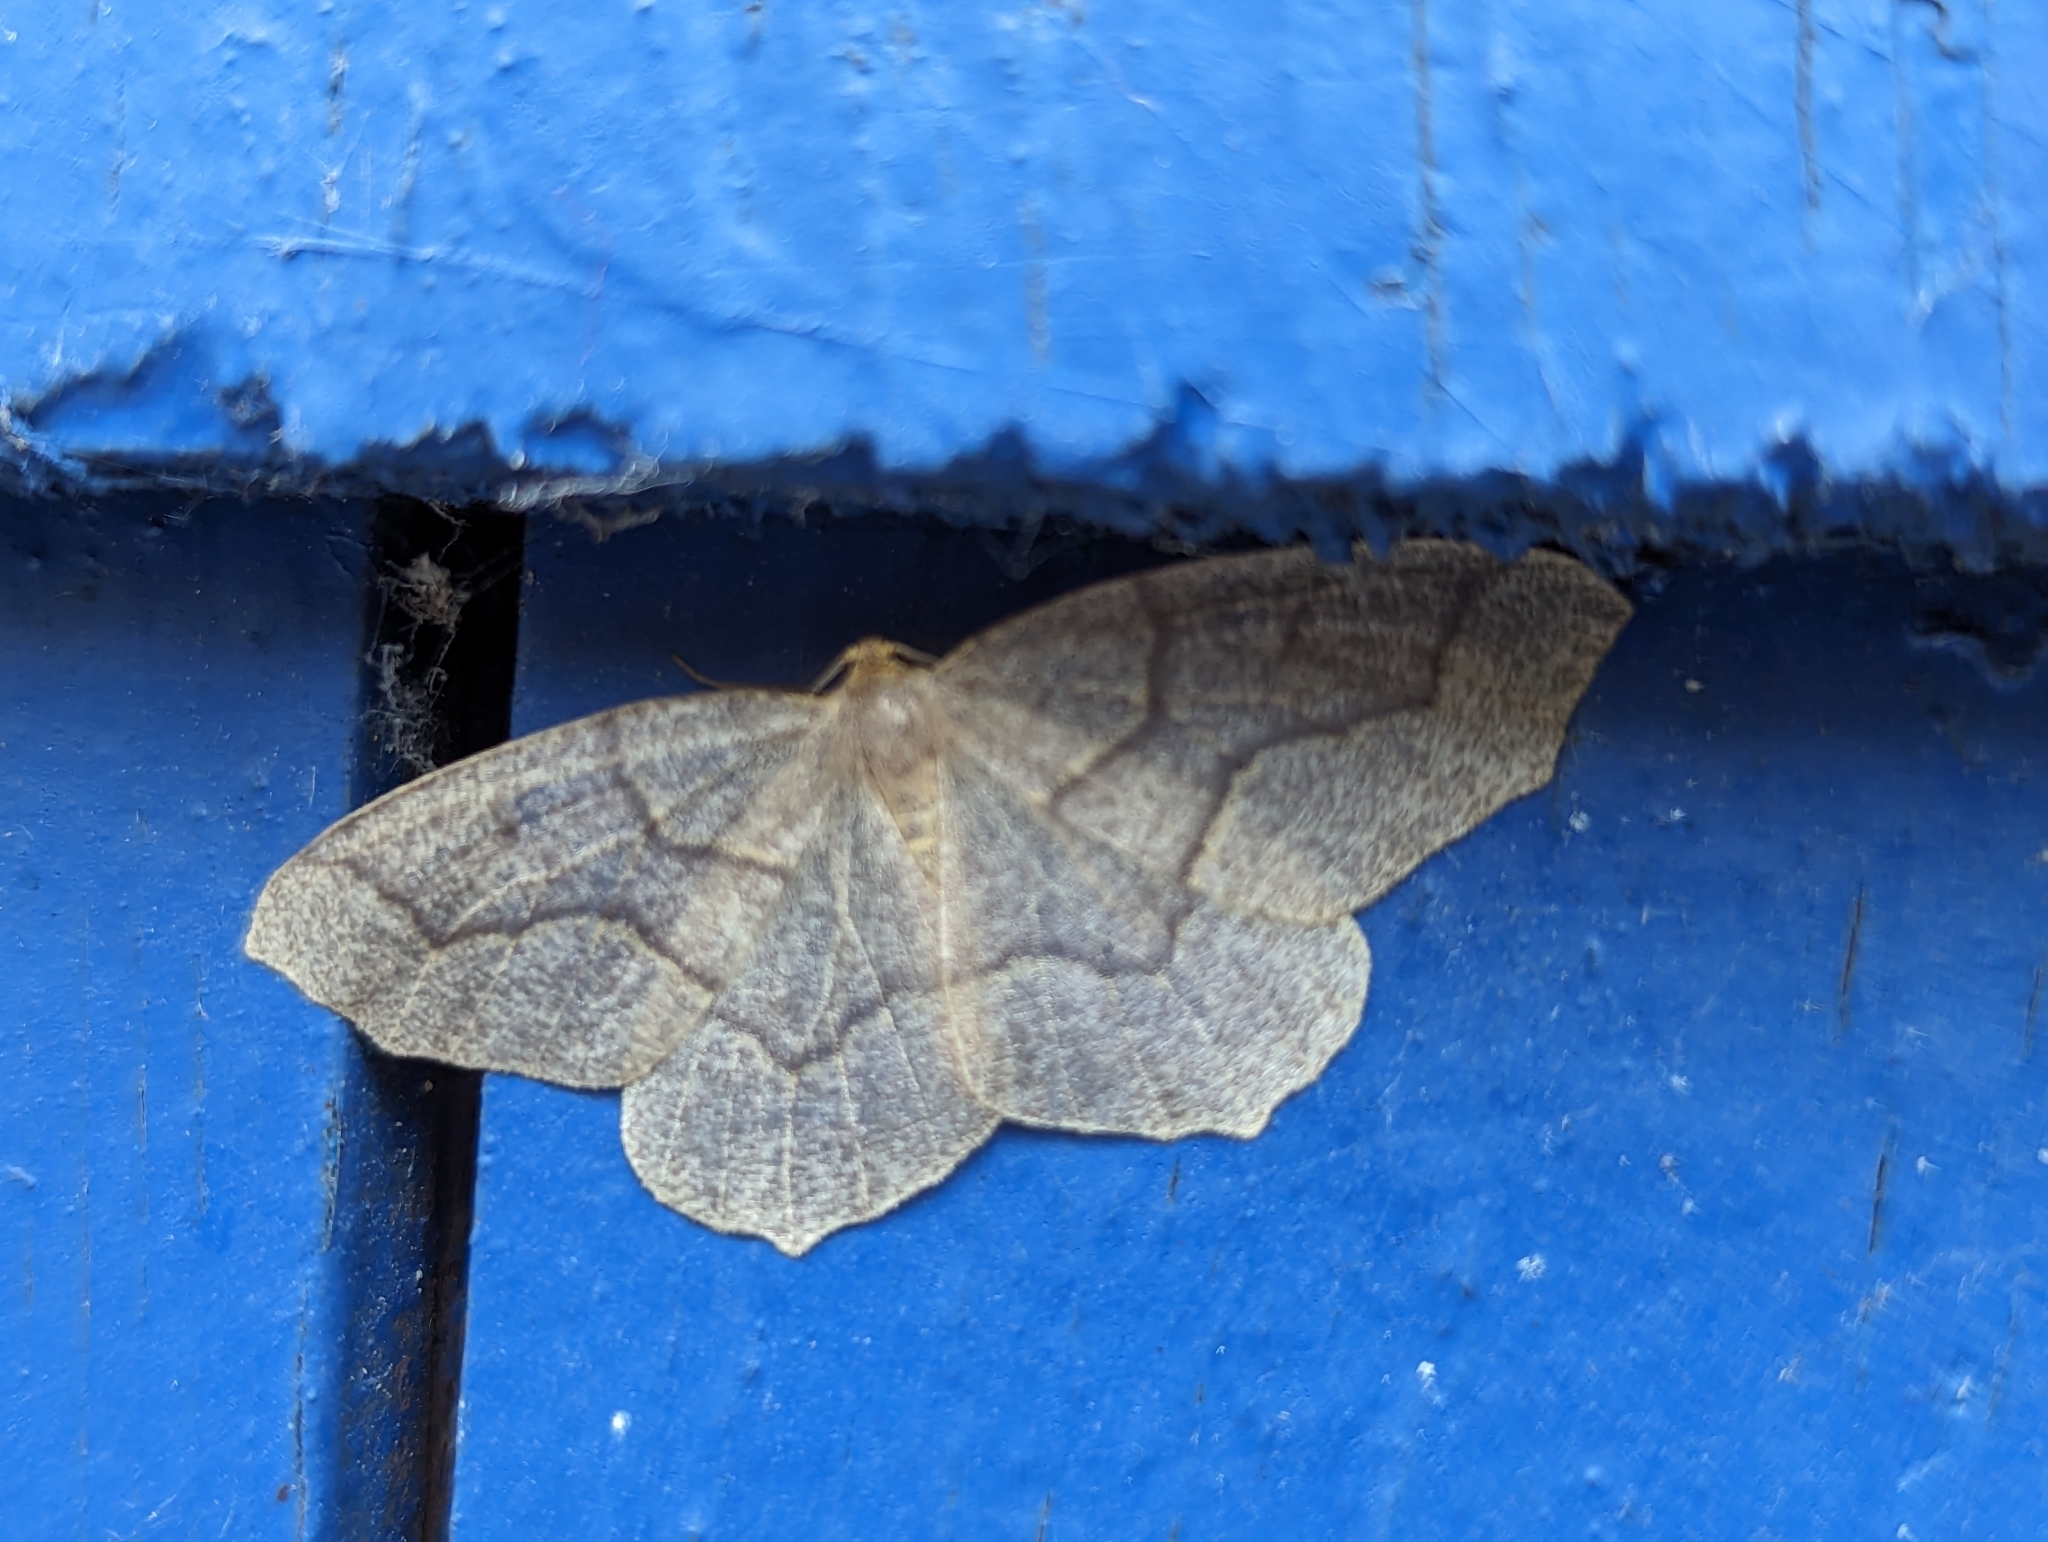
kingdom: Animalia
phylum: Arthropoda
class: Insecta
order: Lepidoptera
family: Geometridae
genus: Lambdina
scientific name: Lambdina fiscellaria
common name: Hemlock looper
